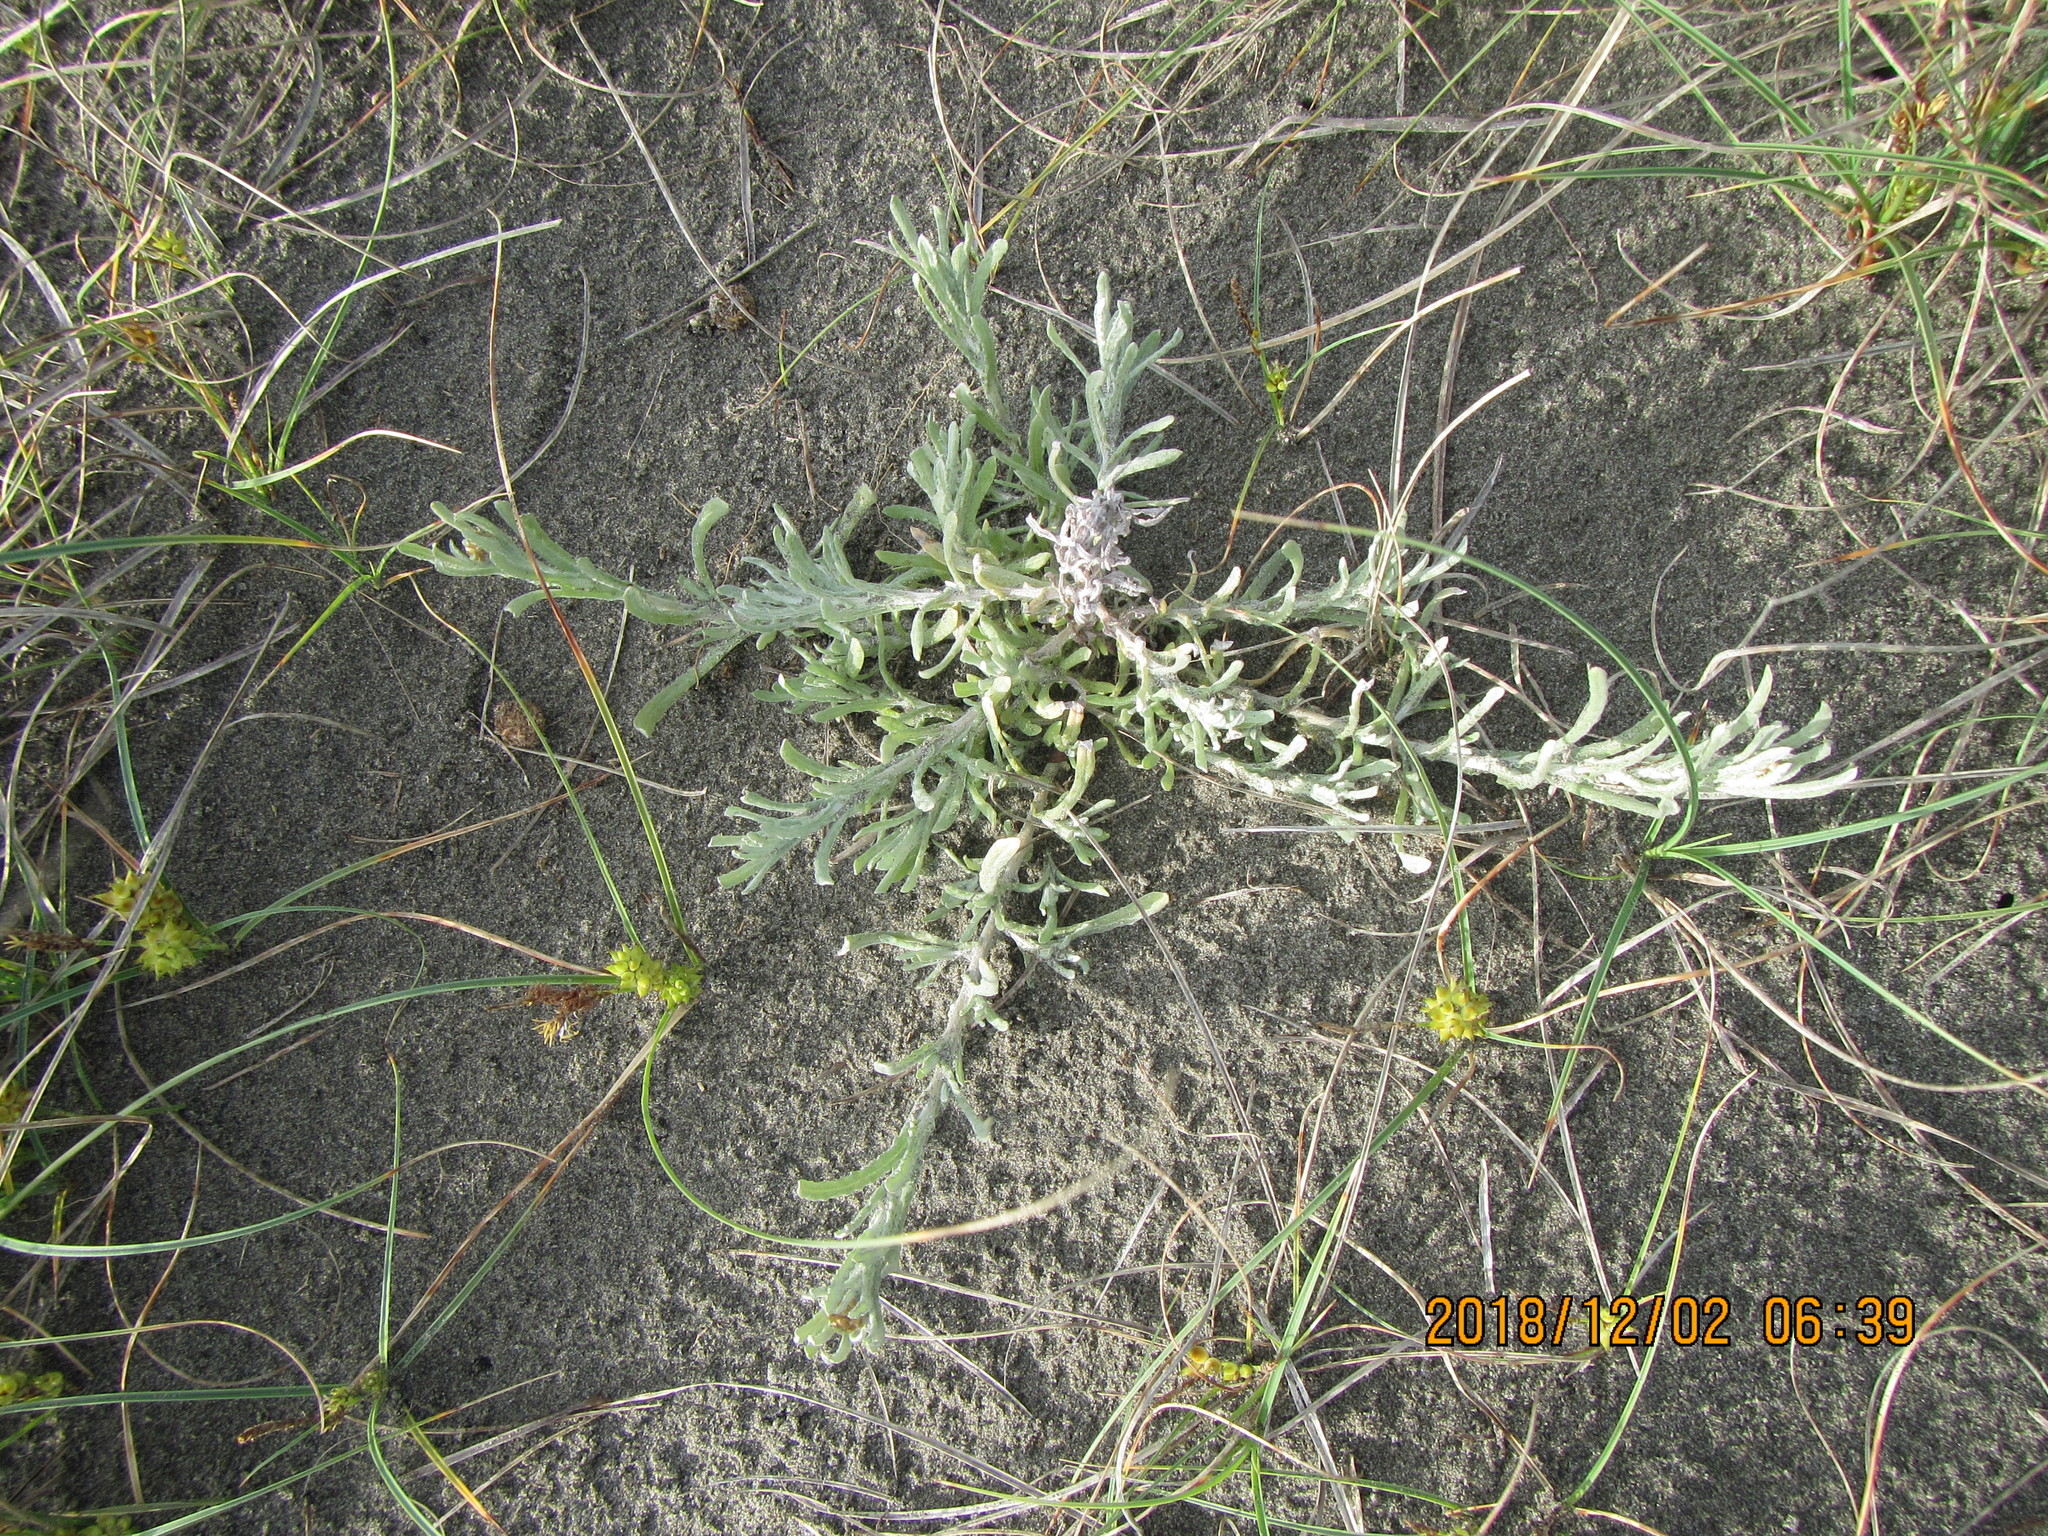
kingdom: Plantae
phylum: Tracheophyta
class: Magnoliopsida
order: Asterales
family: Asteraceae
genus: Helichrysum
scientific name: Helichrysum luteoalbum
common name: Daisy
